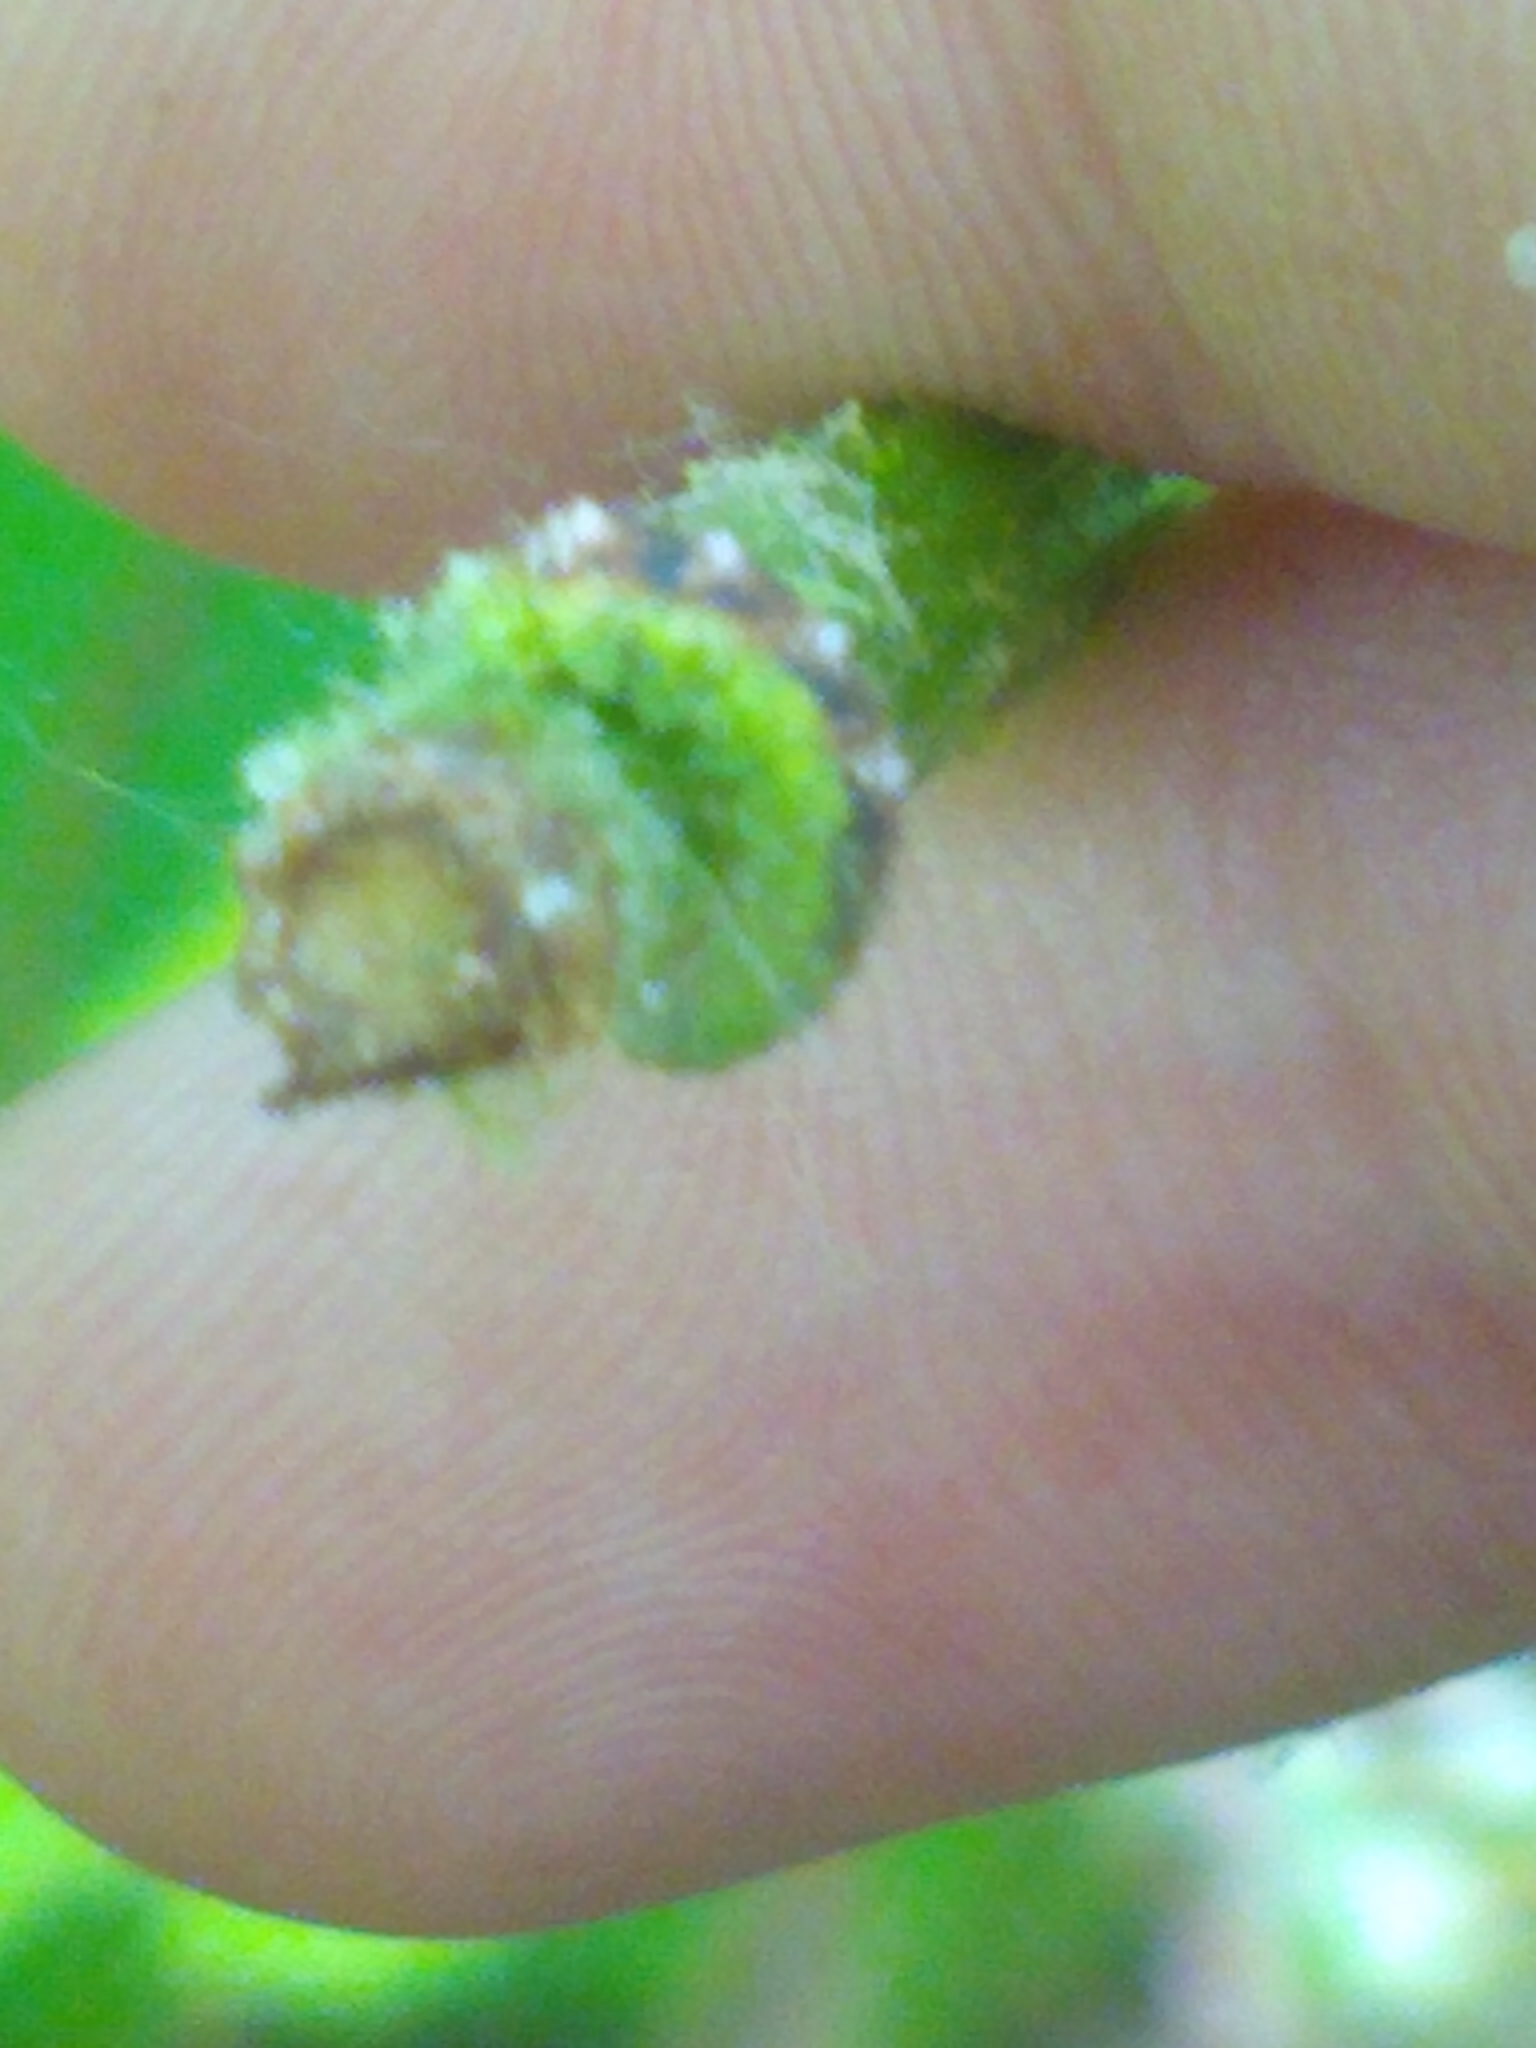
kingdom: Animalia
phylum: Arthropoda
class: Insecta
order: Diptera
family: Syrphidae
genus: Eupeodes
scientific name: Eupeodes pomus
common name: Short-tailed aphideater
